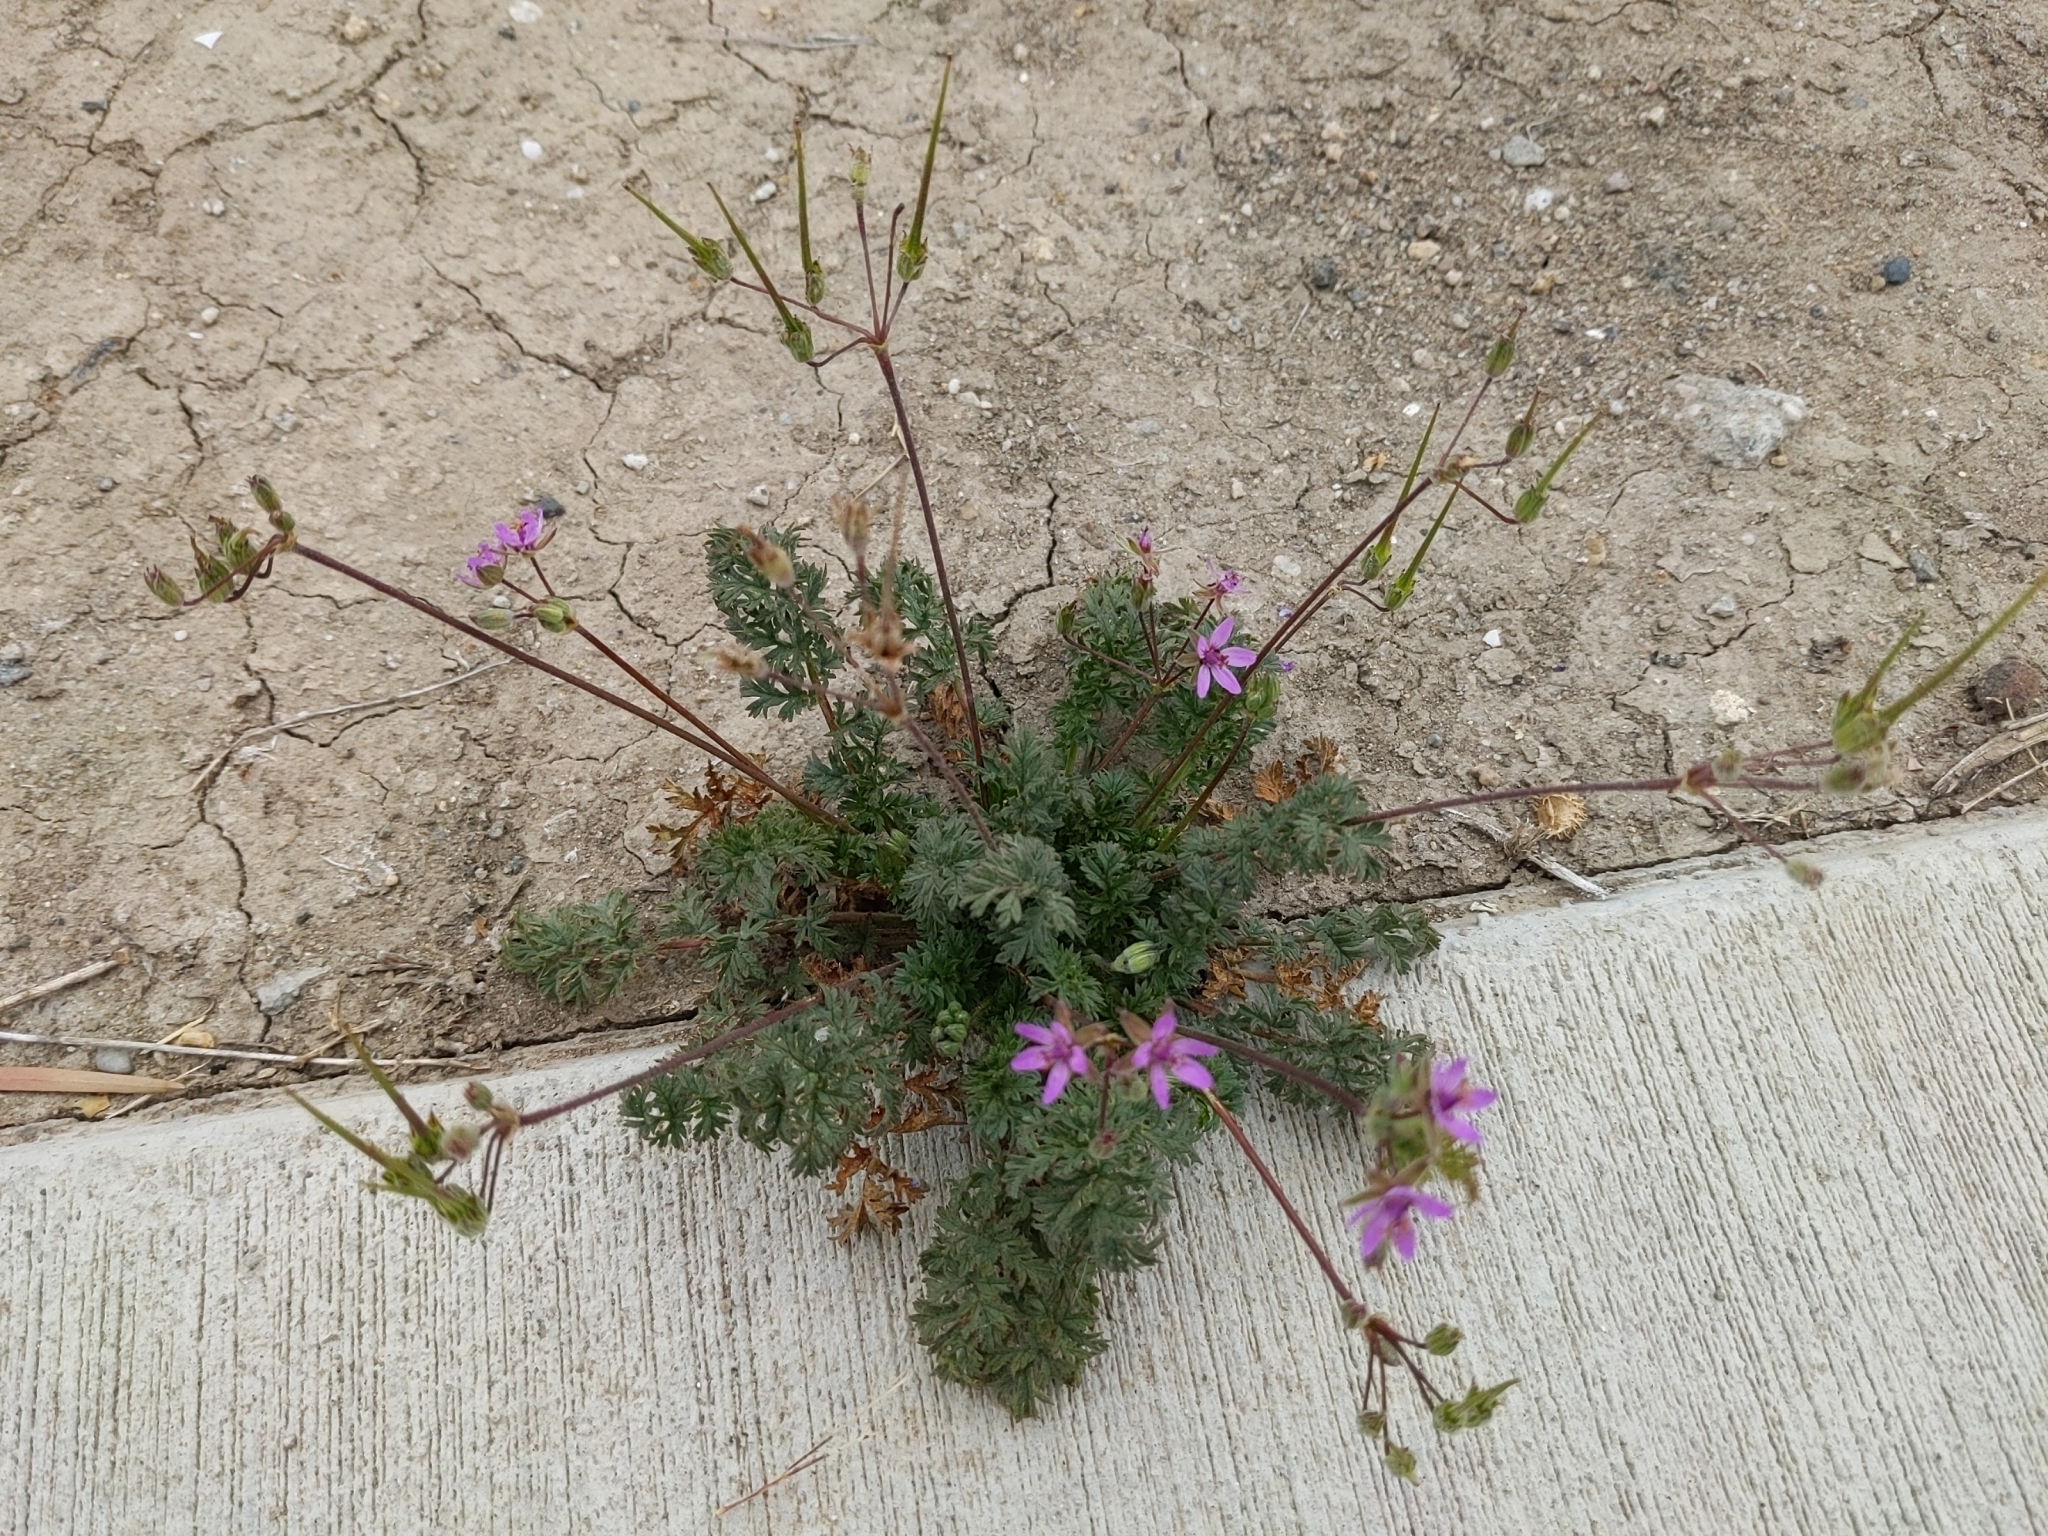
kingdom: Plantae
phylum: Tracheophyta
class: Magnoliopsida
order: Geraniales
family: Geraniaceae
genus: Erodium
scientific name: Erodium cicutarium
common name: Common stork's-bill
